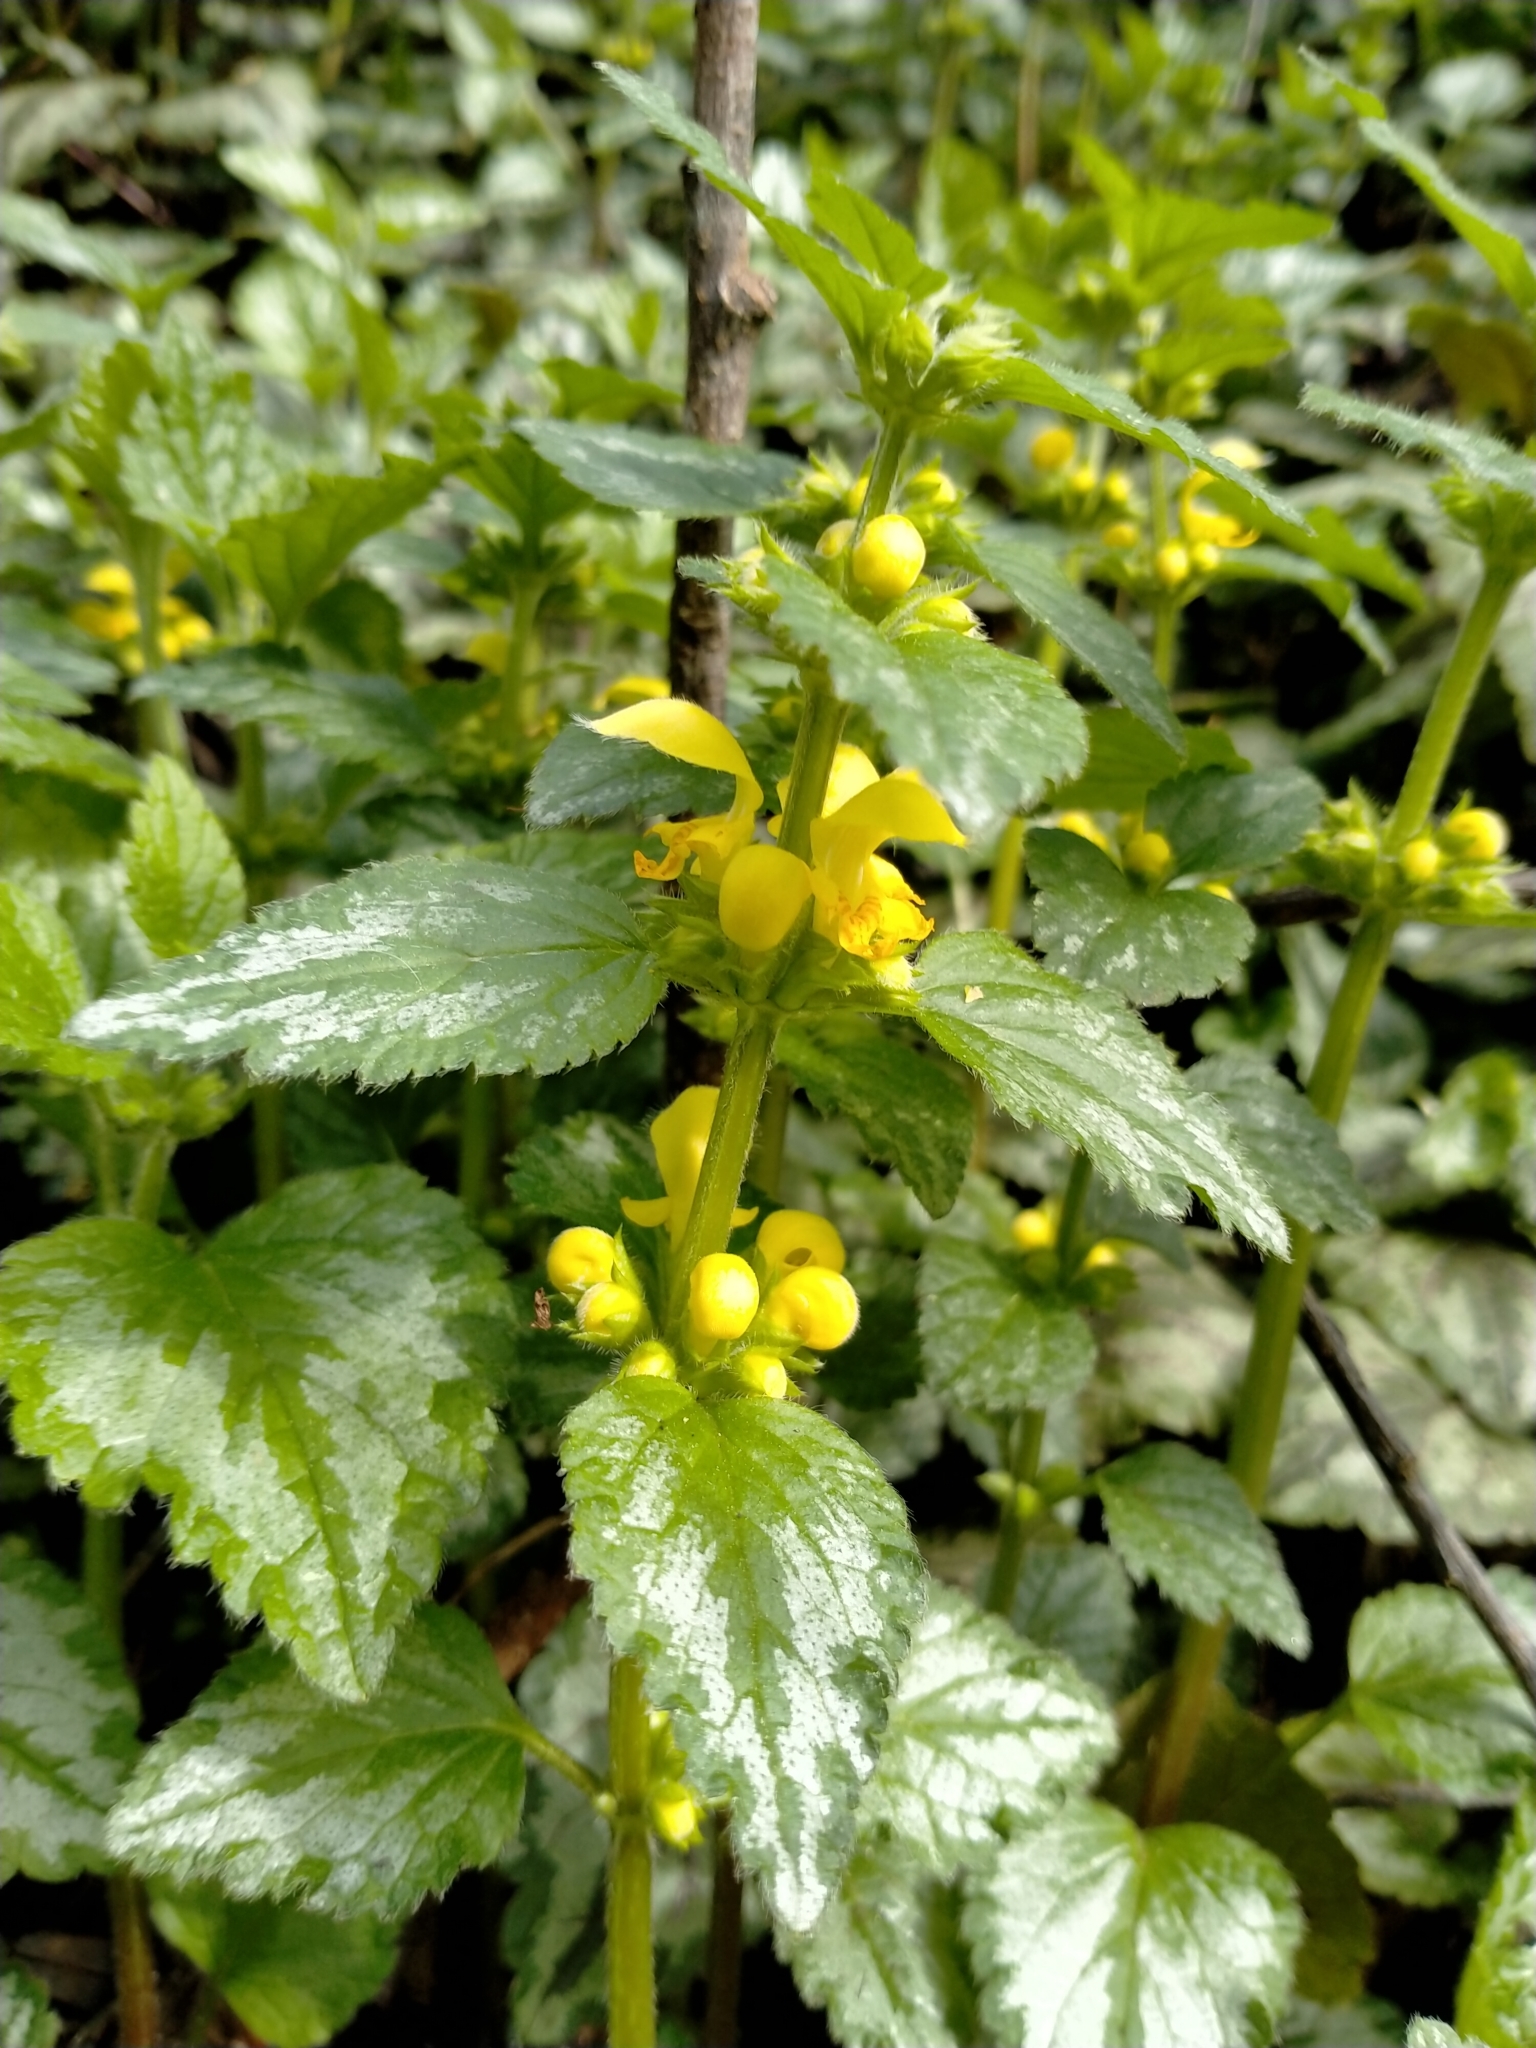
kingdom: Plantae
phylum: Tracheophyta
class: Magnoliopsida
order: Lamiales
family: Lamiaceae
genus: Lamium
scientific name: Lamium galeobdolon
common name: Yellow archangel
